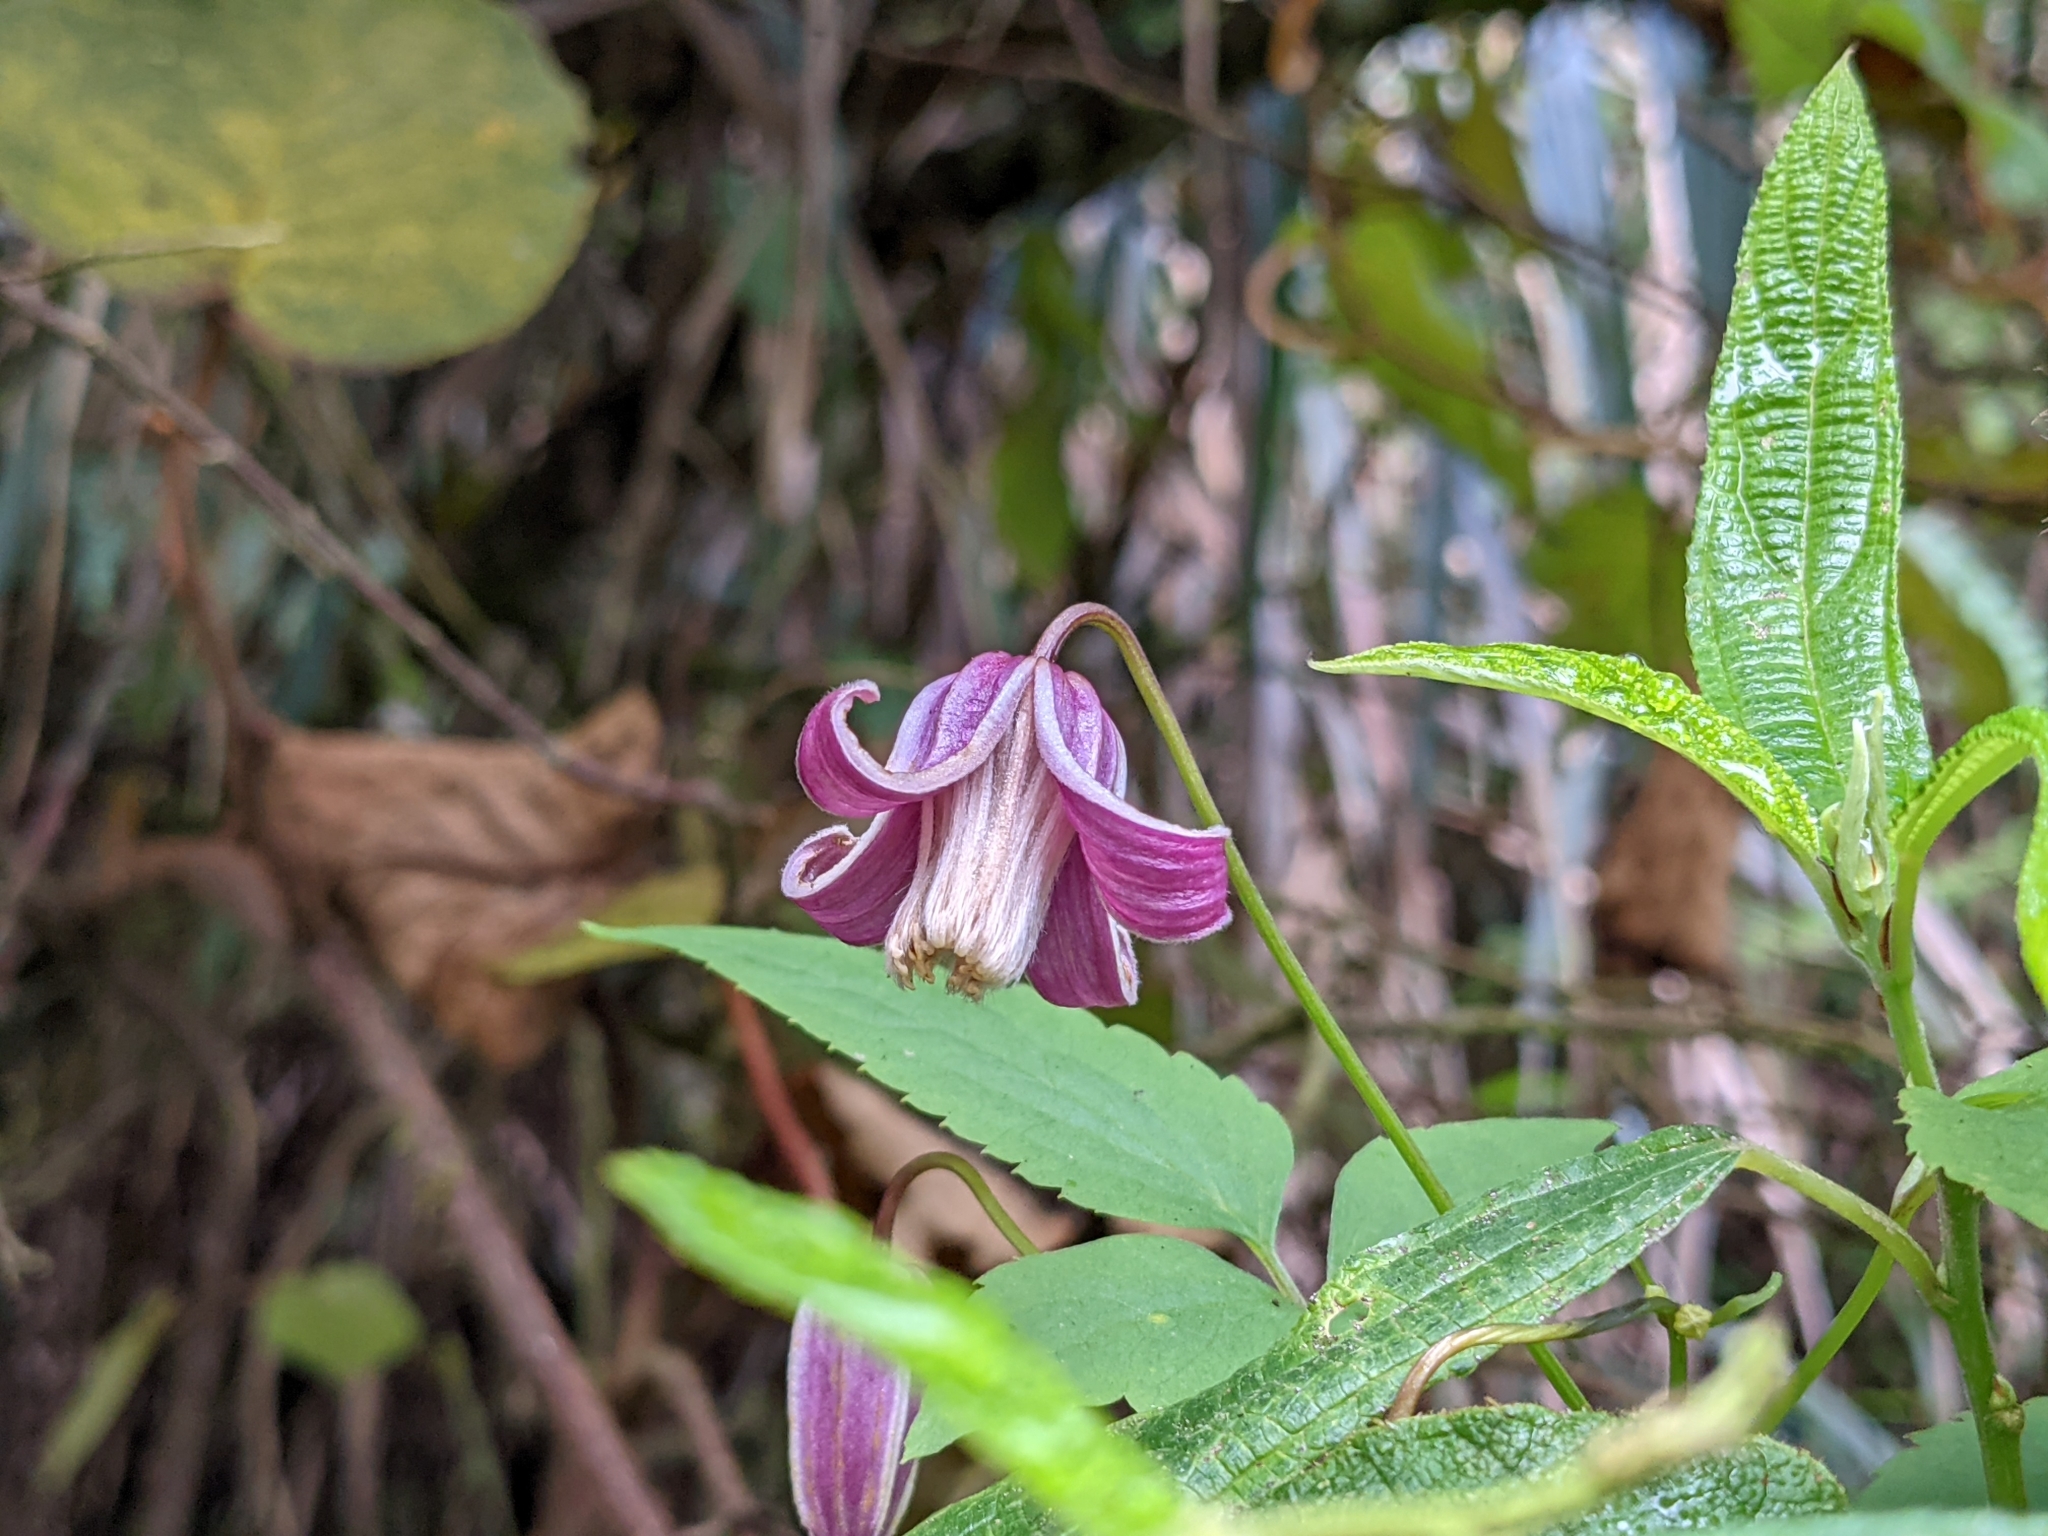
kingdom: Plantae
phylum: Tracheophyta
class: Magnoliopsida
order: Ranunculales
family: Ranunculaceae
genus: Clematis
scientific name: Clematis lasiandra
